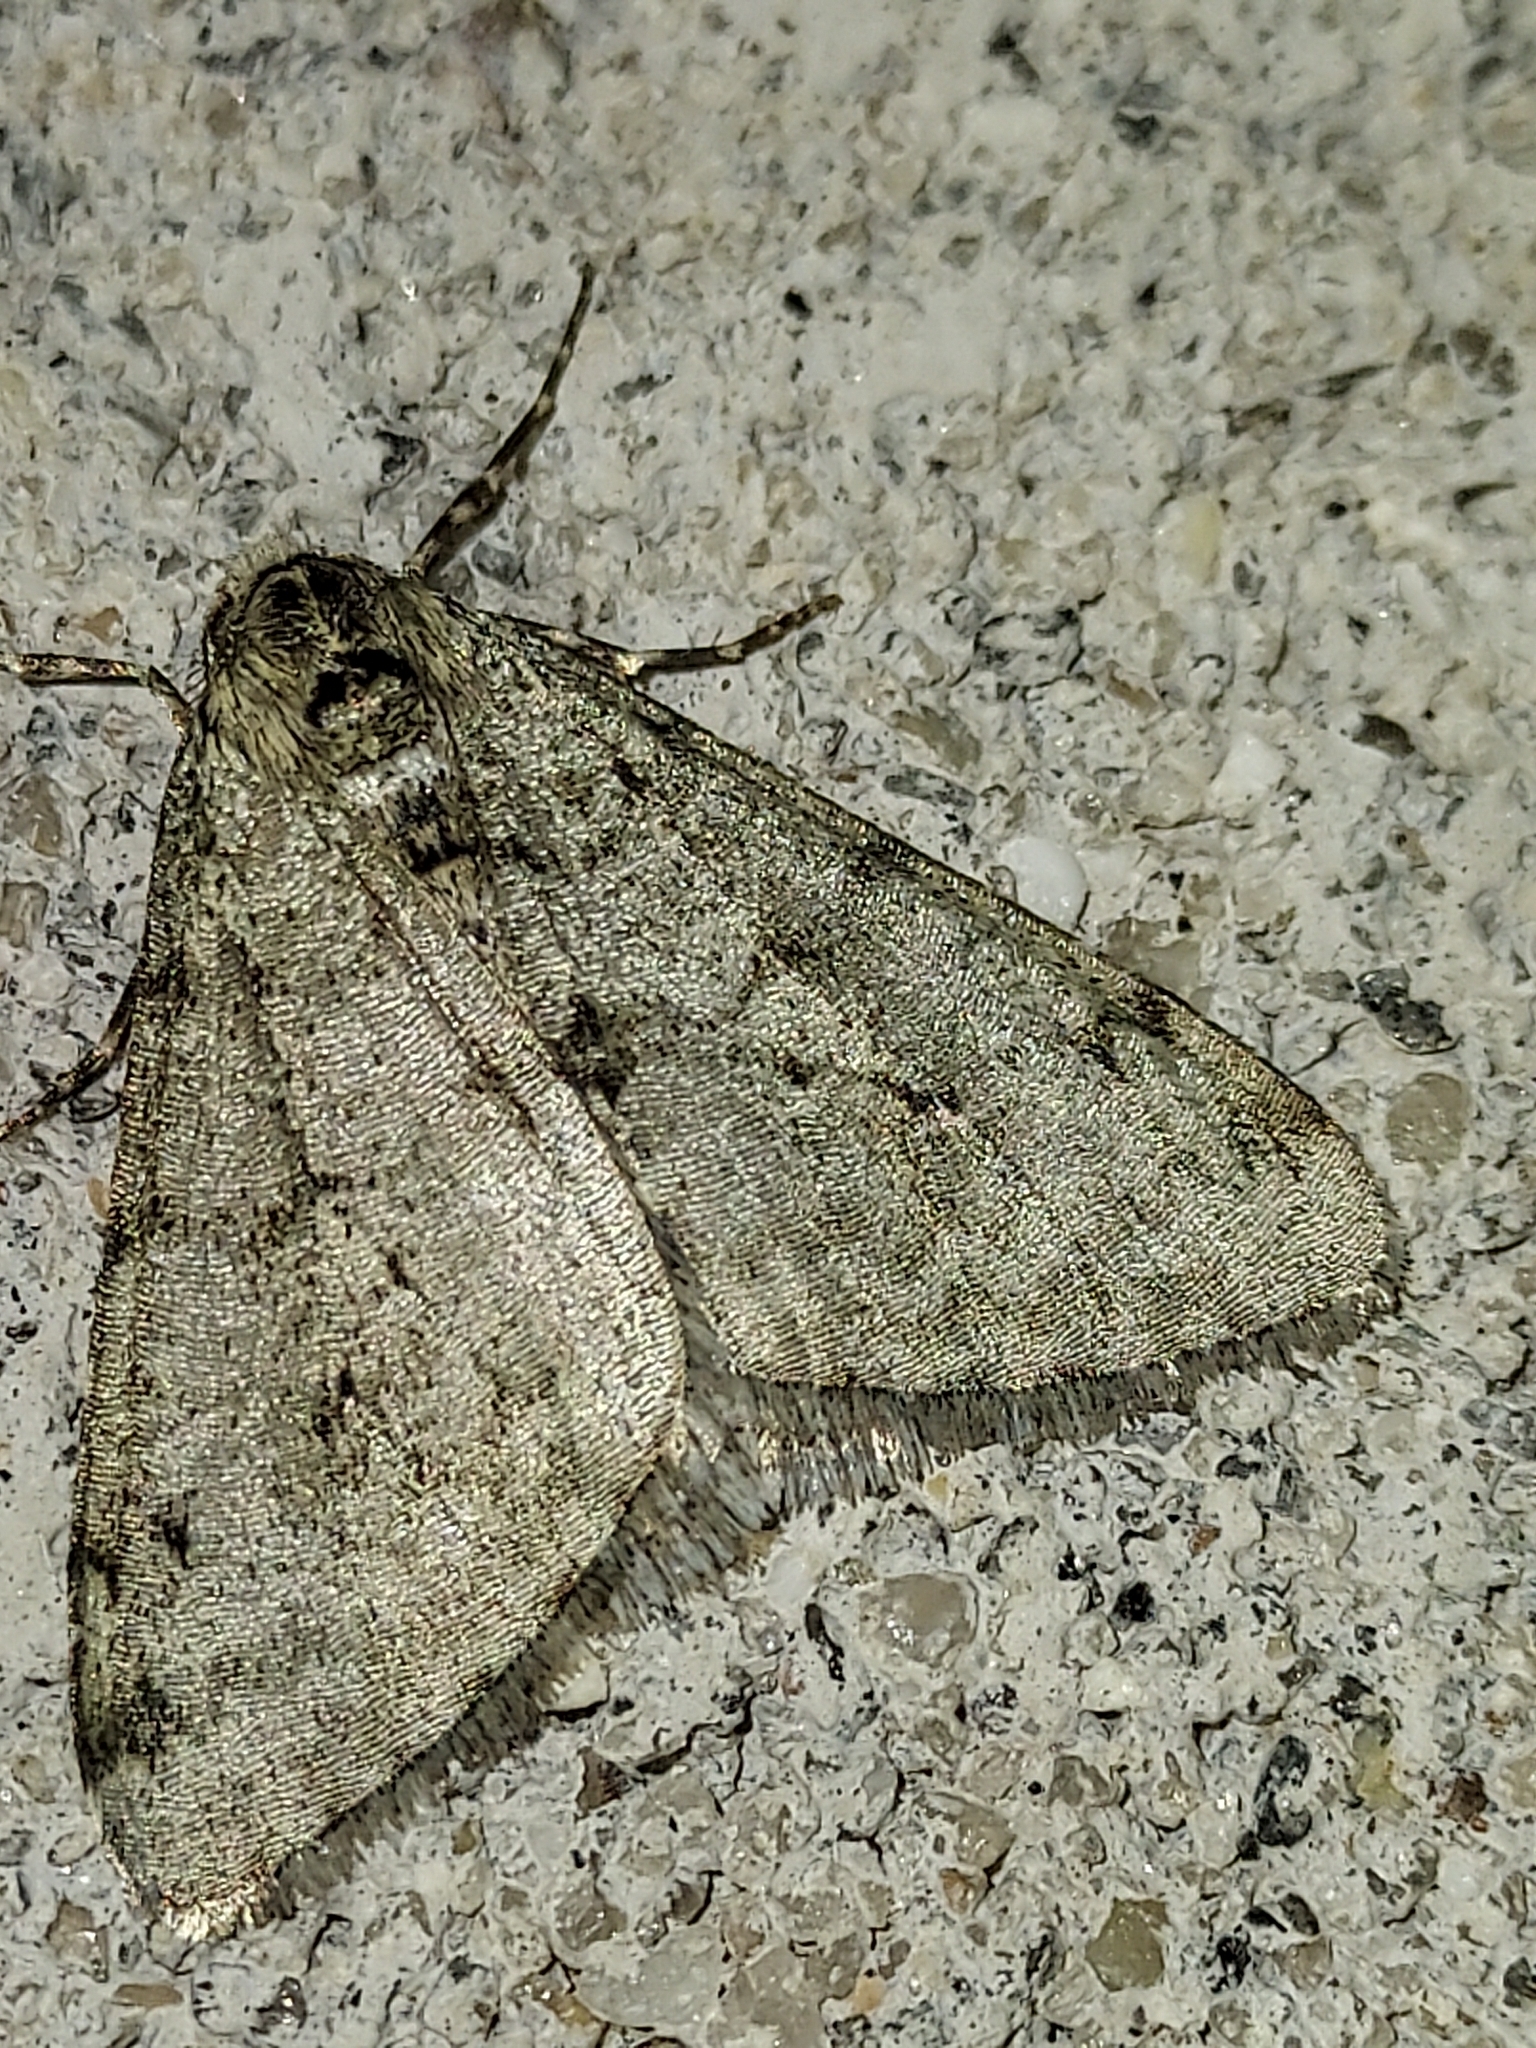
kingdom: Animalia
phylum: Arthropoda
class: Insecta
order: Lepidoptera
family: Geometridae
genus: Phigalia
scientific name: Phigalia strigataria
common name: Small phigalia
